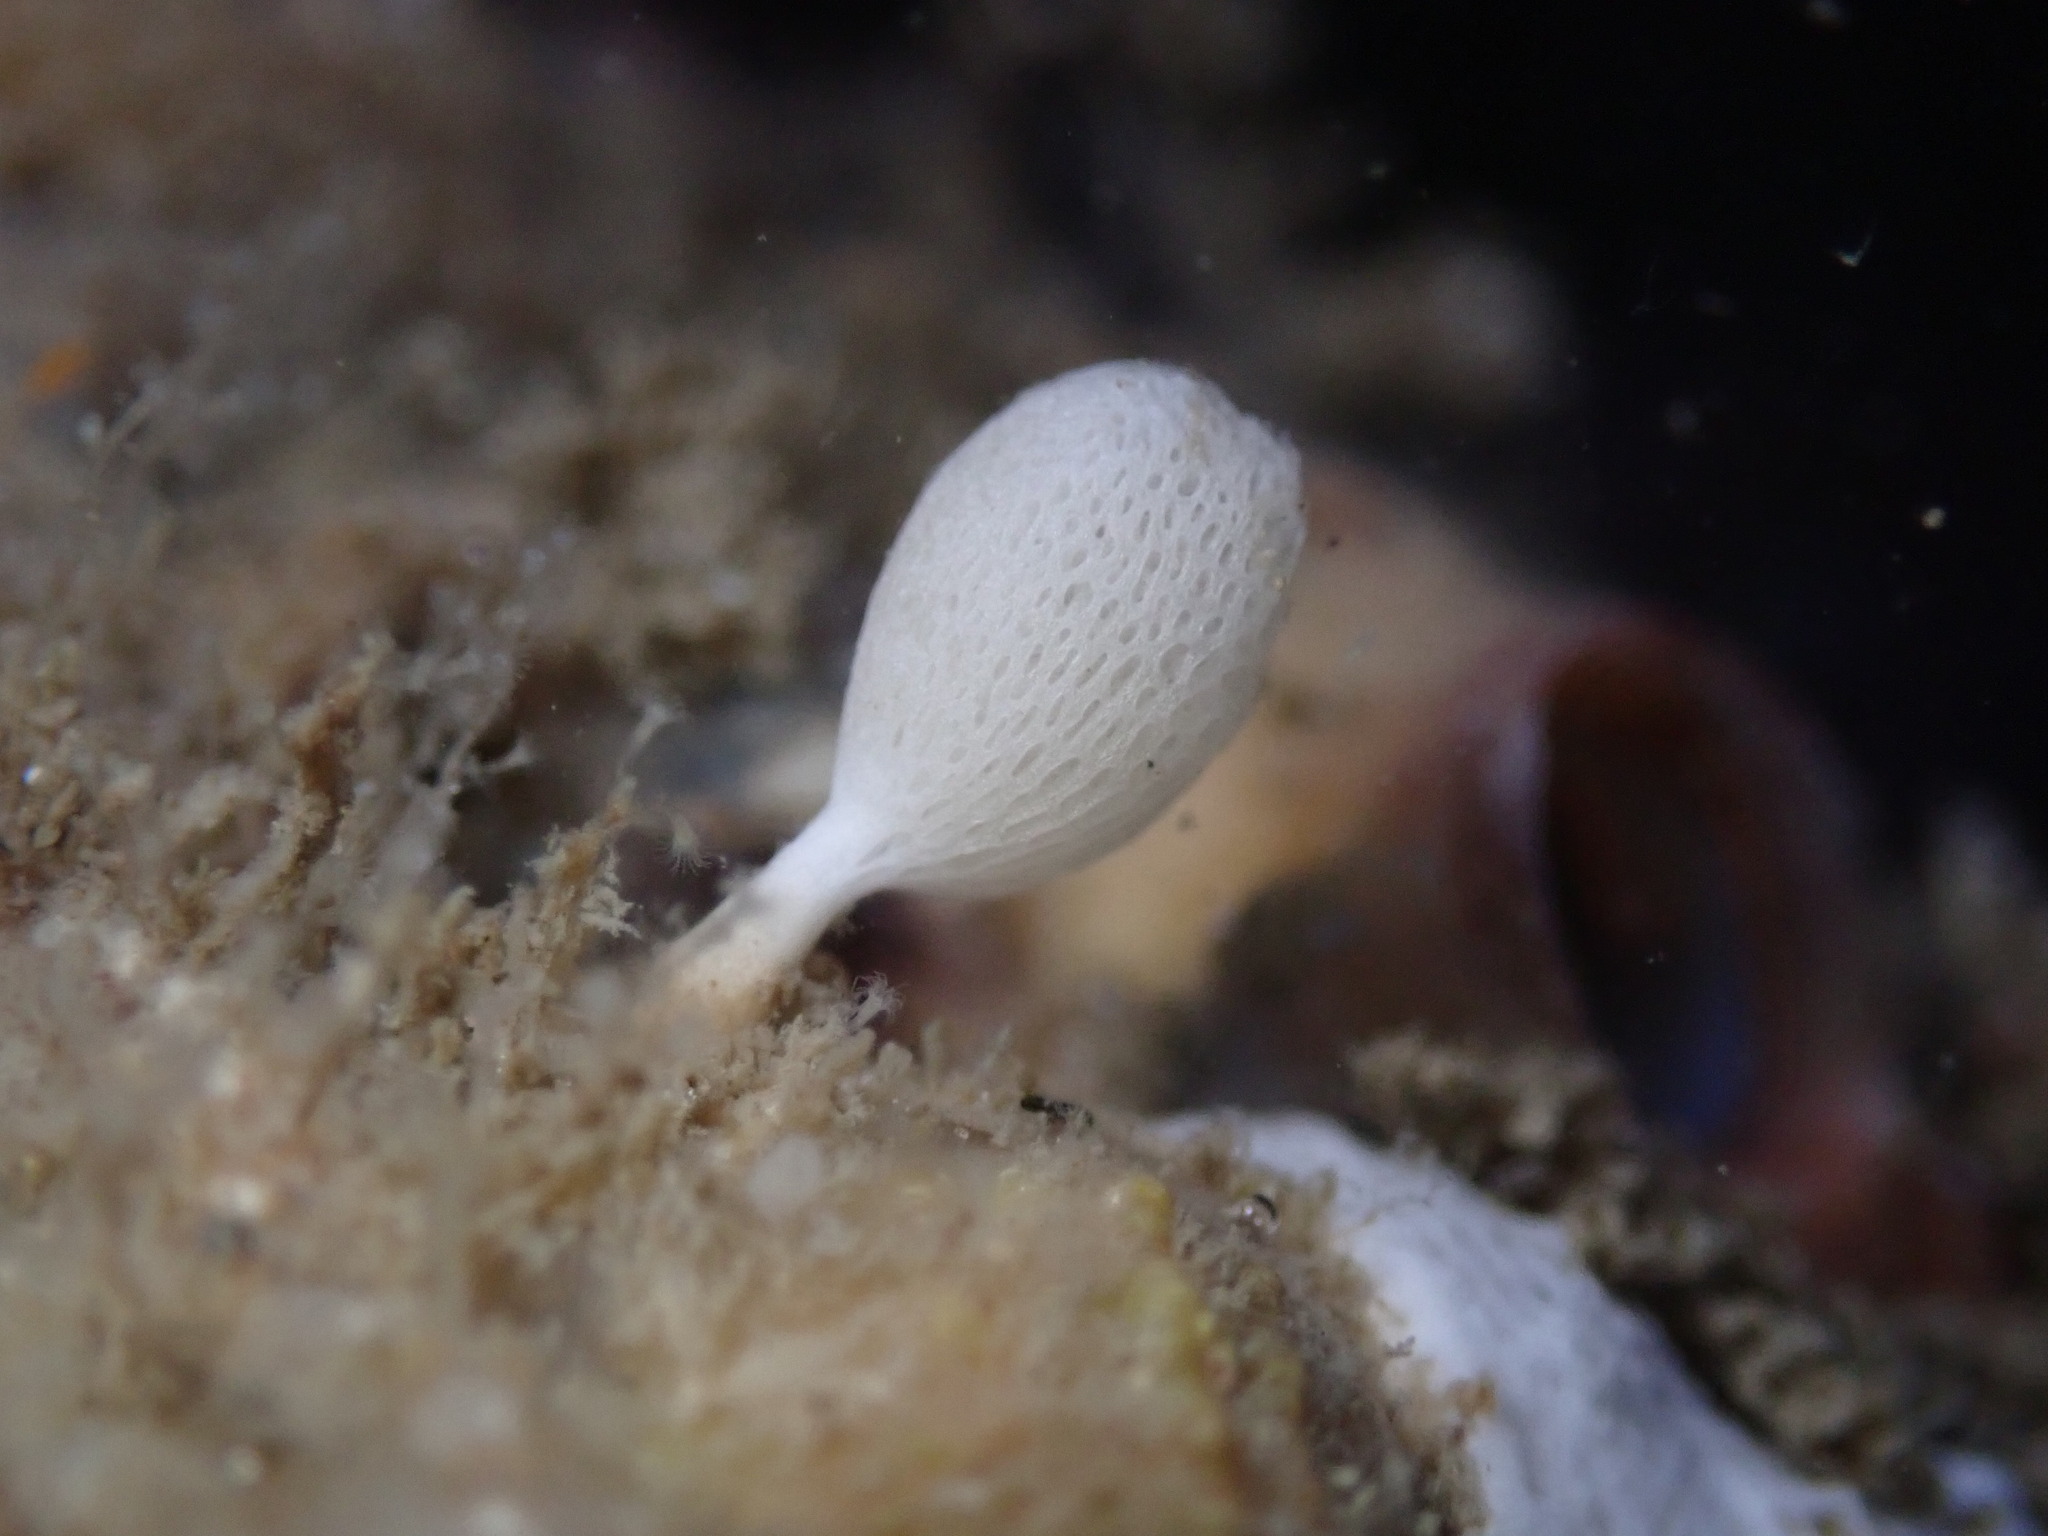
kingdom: Animalia
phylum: Porifera
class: Calcarea
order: Clathrinida
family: Clathrinidae
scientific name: Clathrinidae
